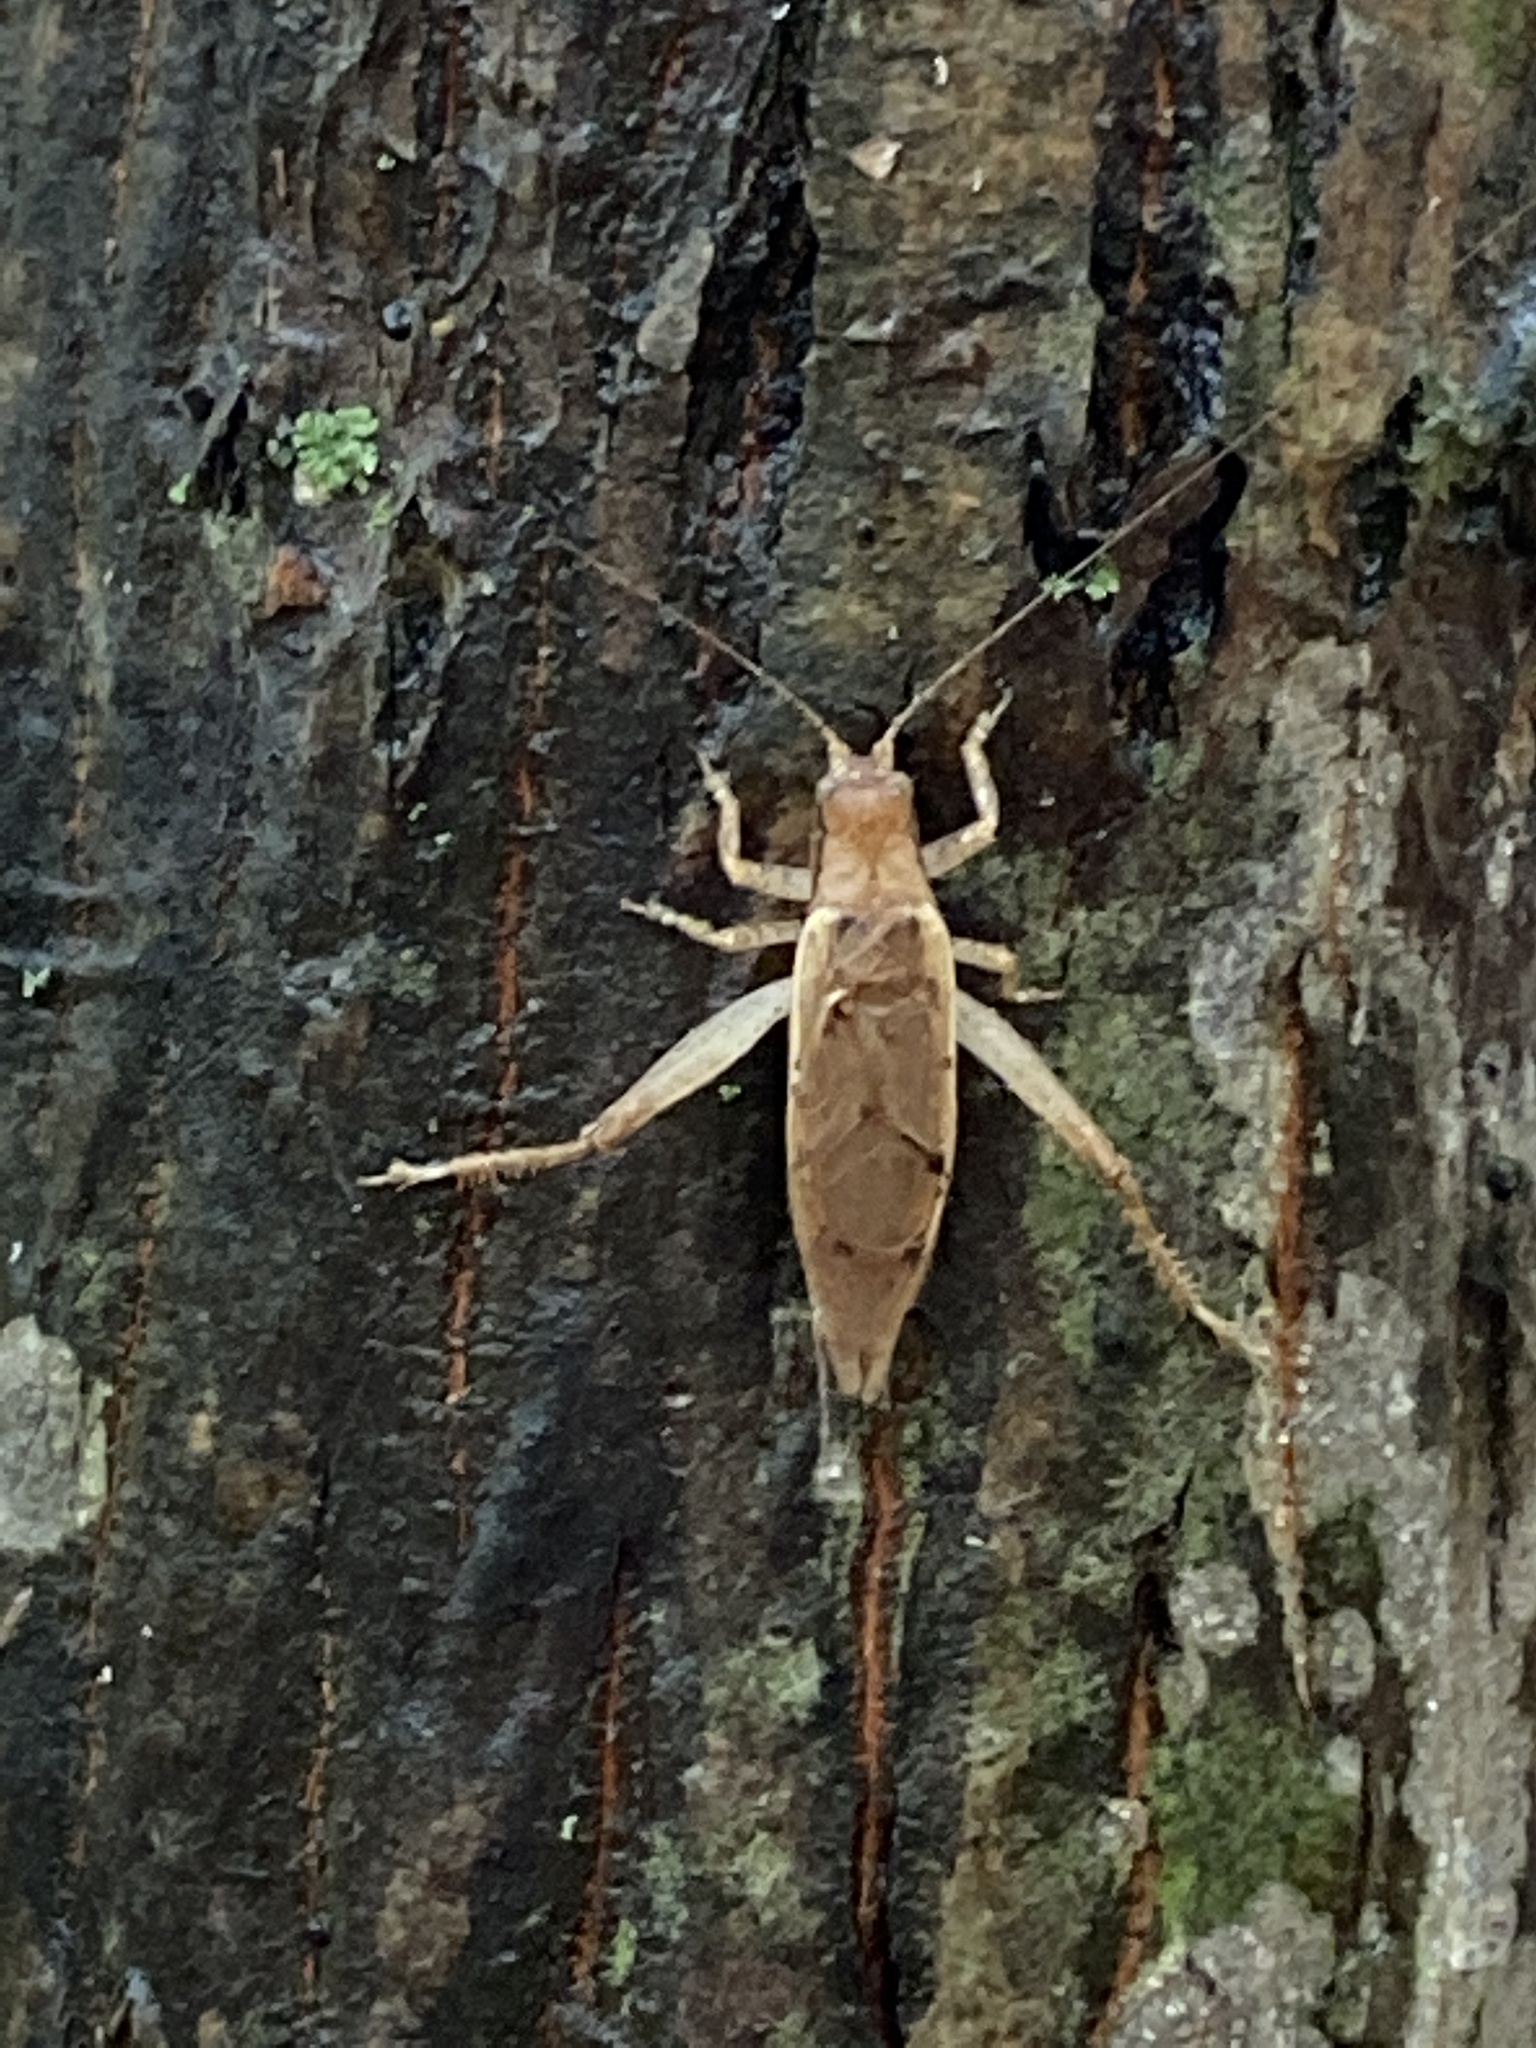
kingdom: Animalia
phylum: Arthropoda
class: Insecta
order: Orthoptera
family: Gryllidae
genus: Hapithus
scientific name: Hapithus saltator
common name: Jumping bush cricket
